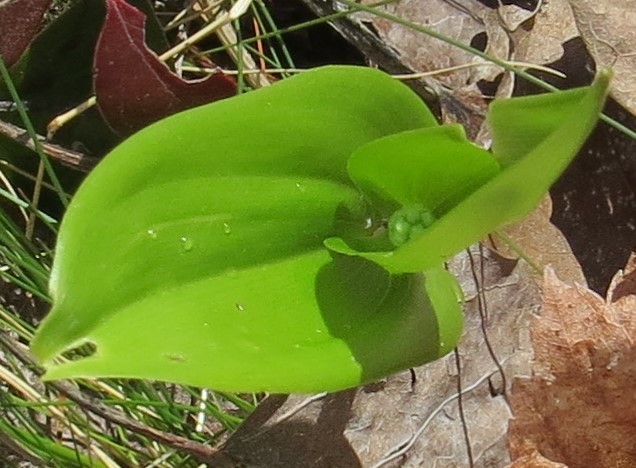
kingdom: Plantae
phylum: Tracheophyta
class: Liliopsida
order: Asparagales
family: Asparagaceae
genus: Maianthemum
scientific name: Maianthemum canadense
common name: False lily-of-the-valley
